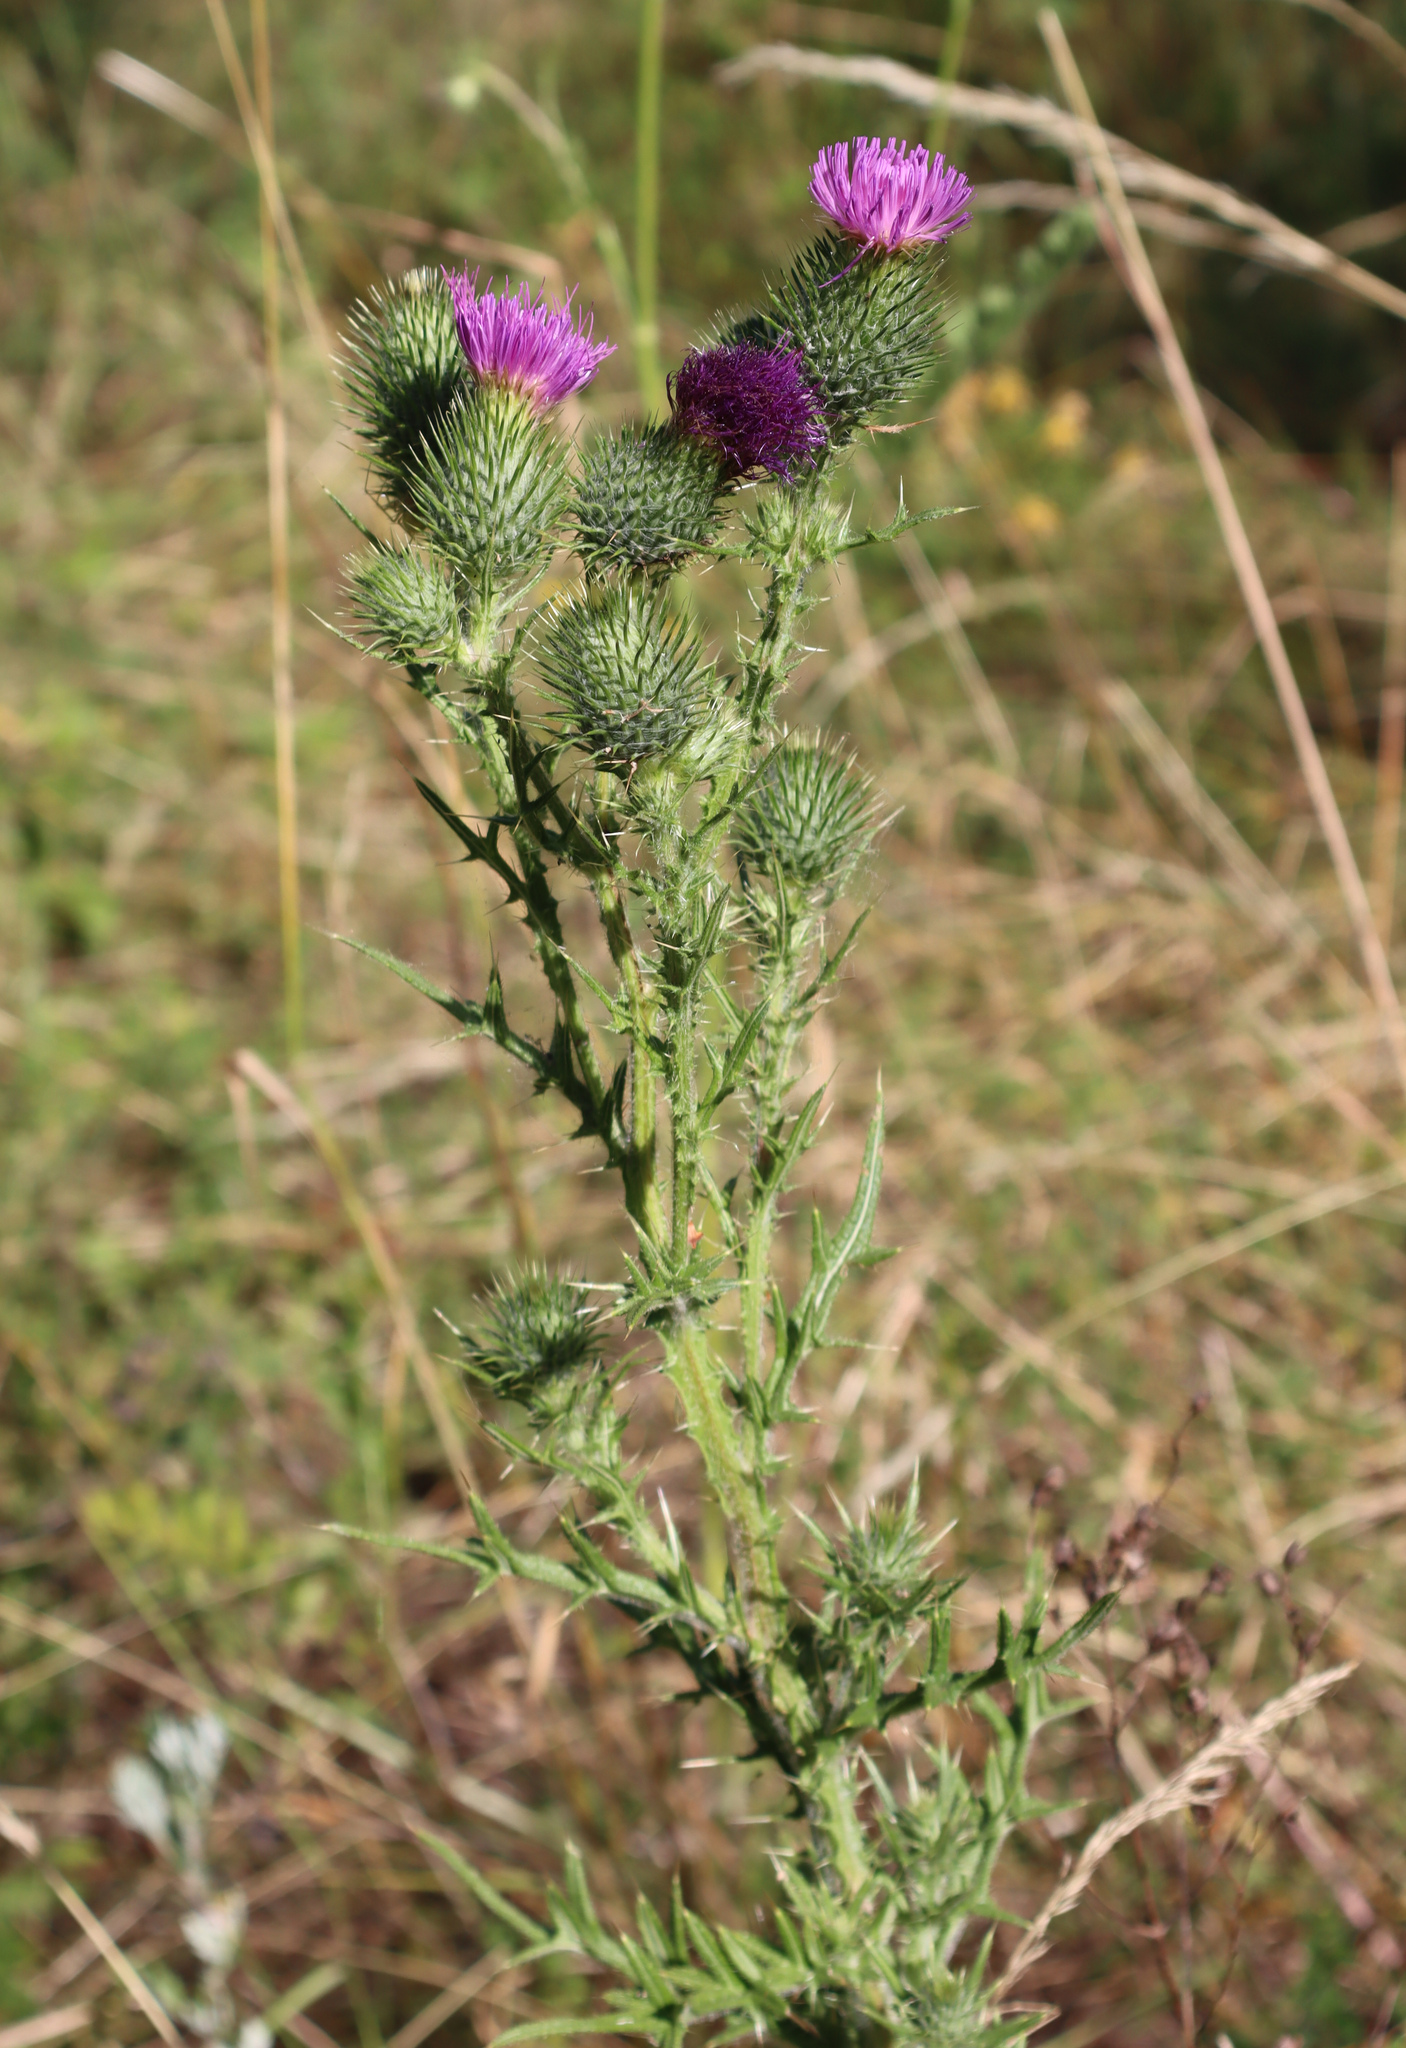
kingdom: Plantae
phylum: Tracheophyta
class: Magnoliopsida
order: Asterales
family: Asteraceae
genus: Cirsium
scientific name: Cirsium vulgare
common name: Bull thistle
